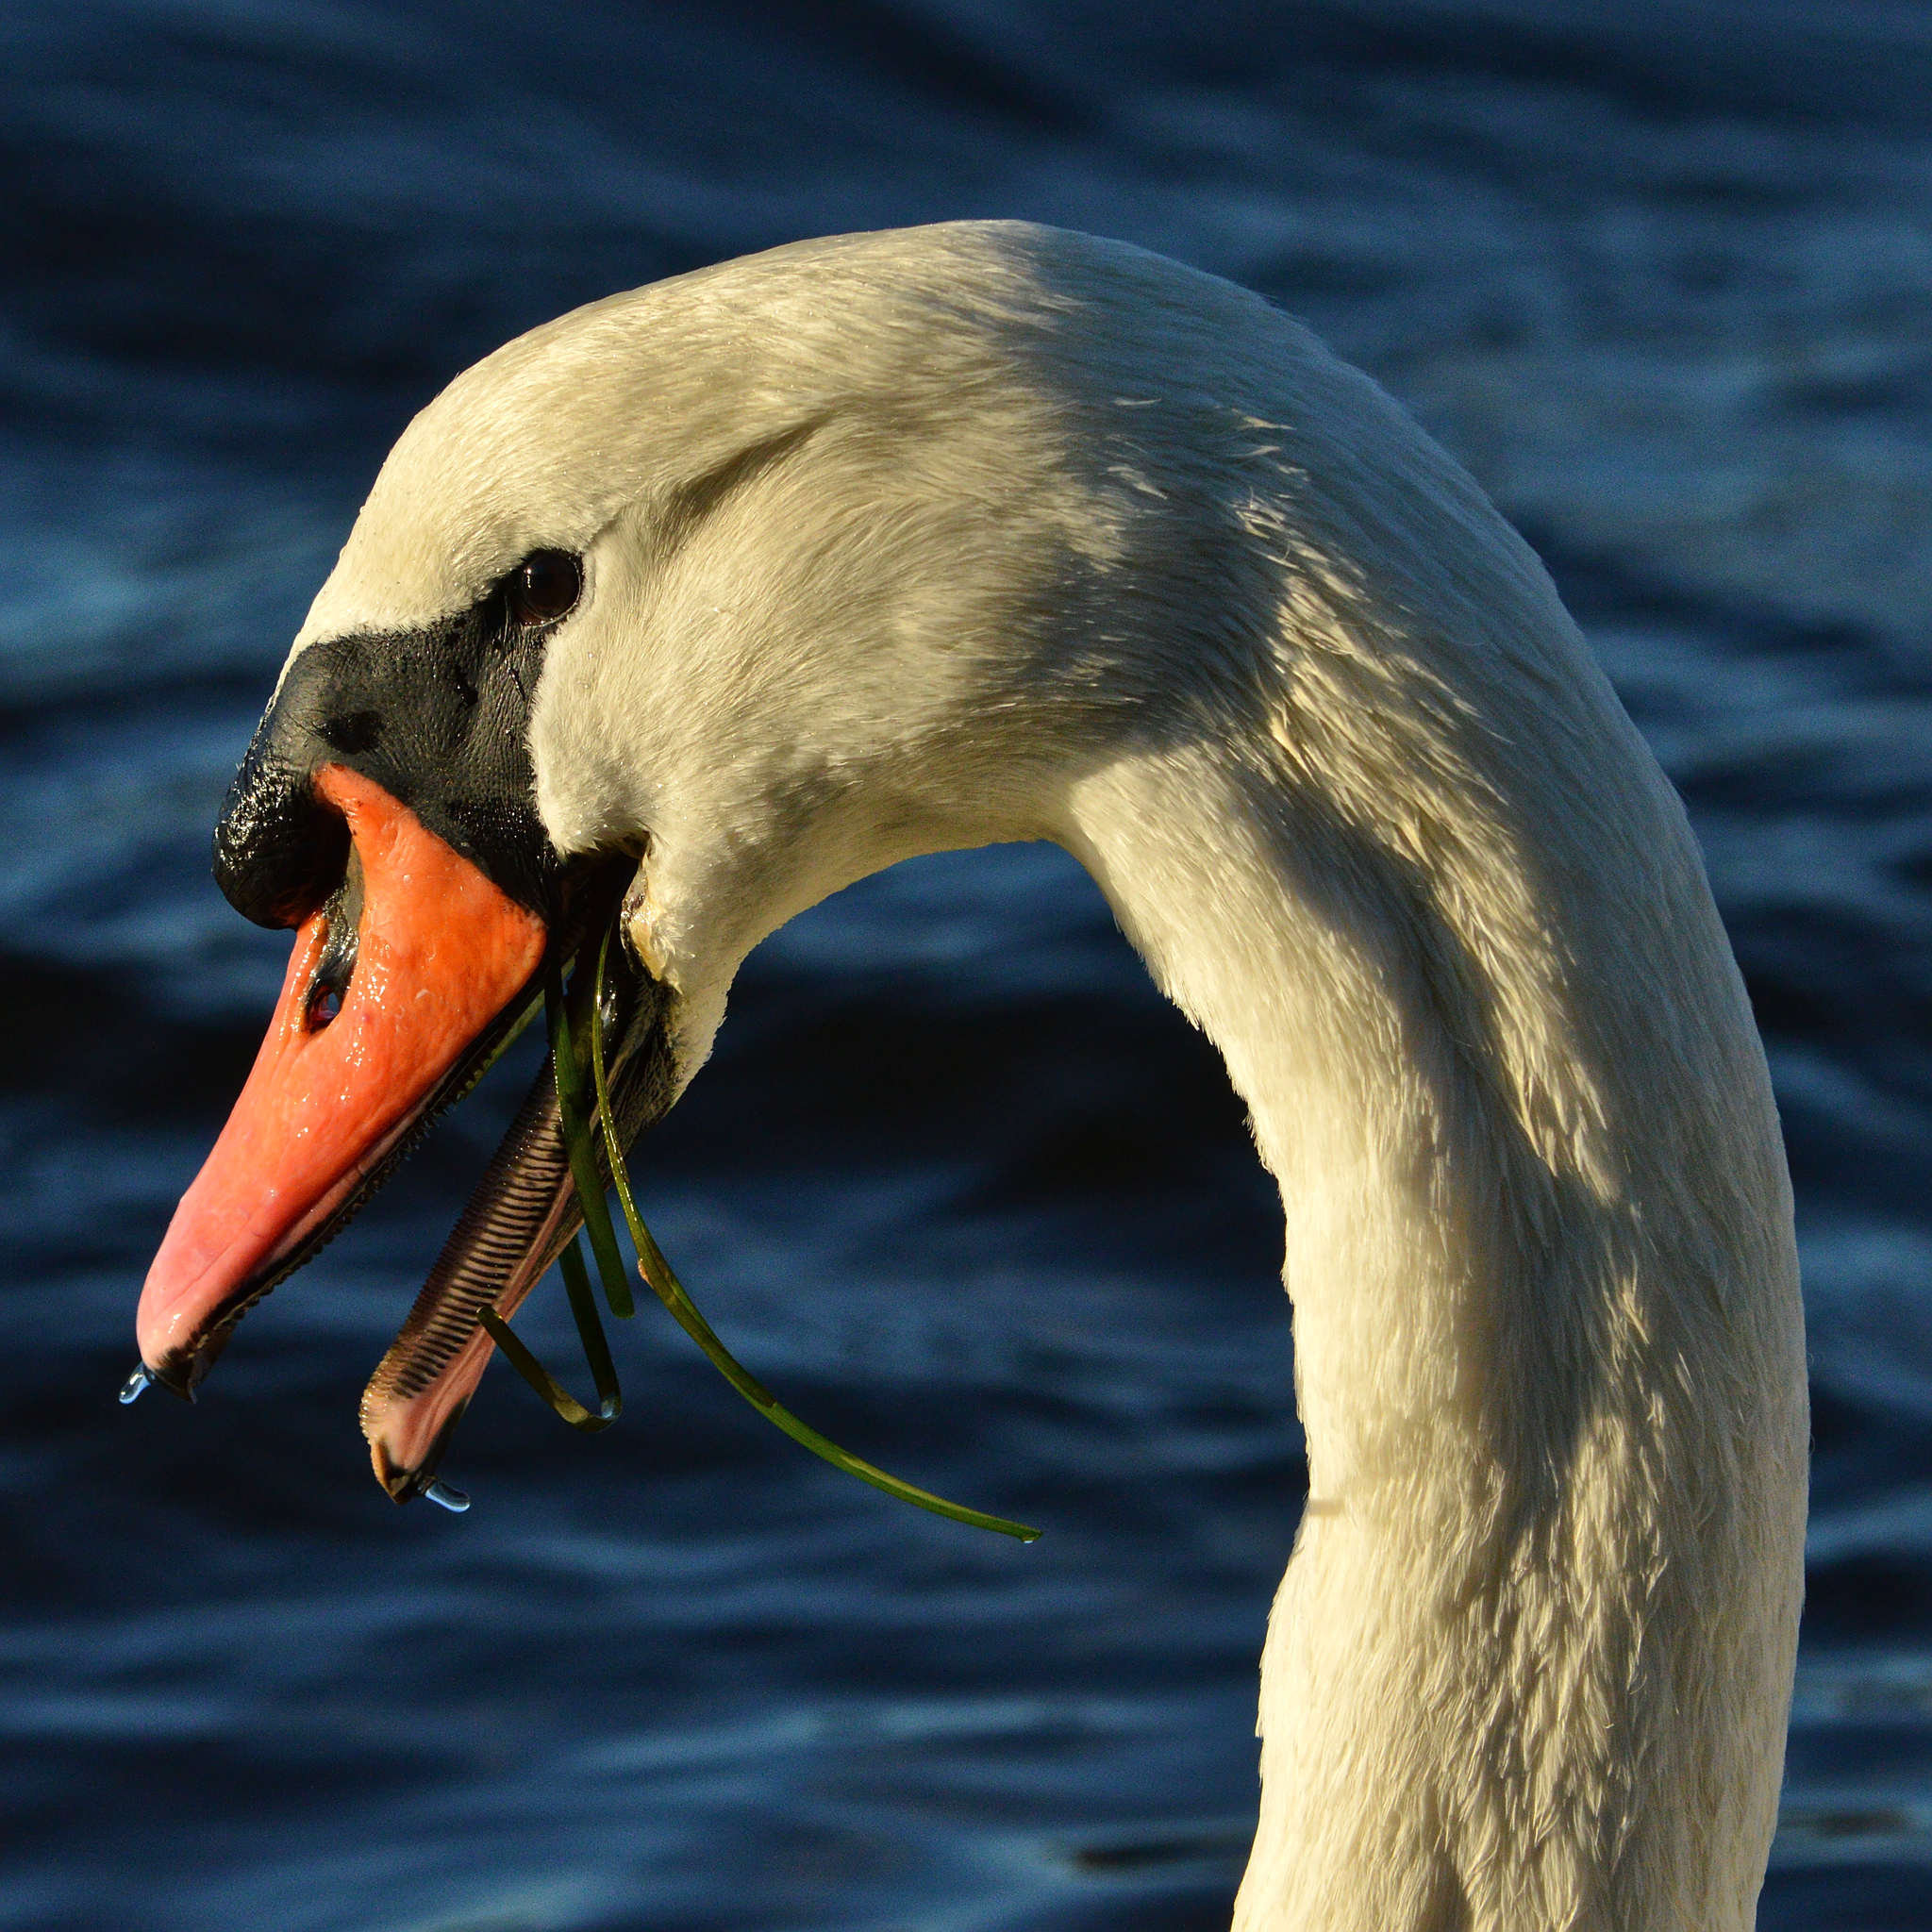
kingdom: Animalia
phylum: Chordata
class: Aves
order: Anseriformes
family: Anatidae
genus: Cygnus
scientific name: Cygnus olor
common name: Mute swan
